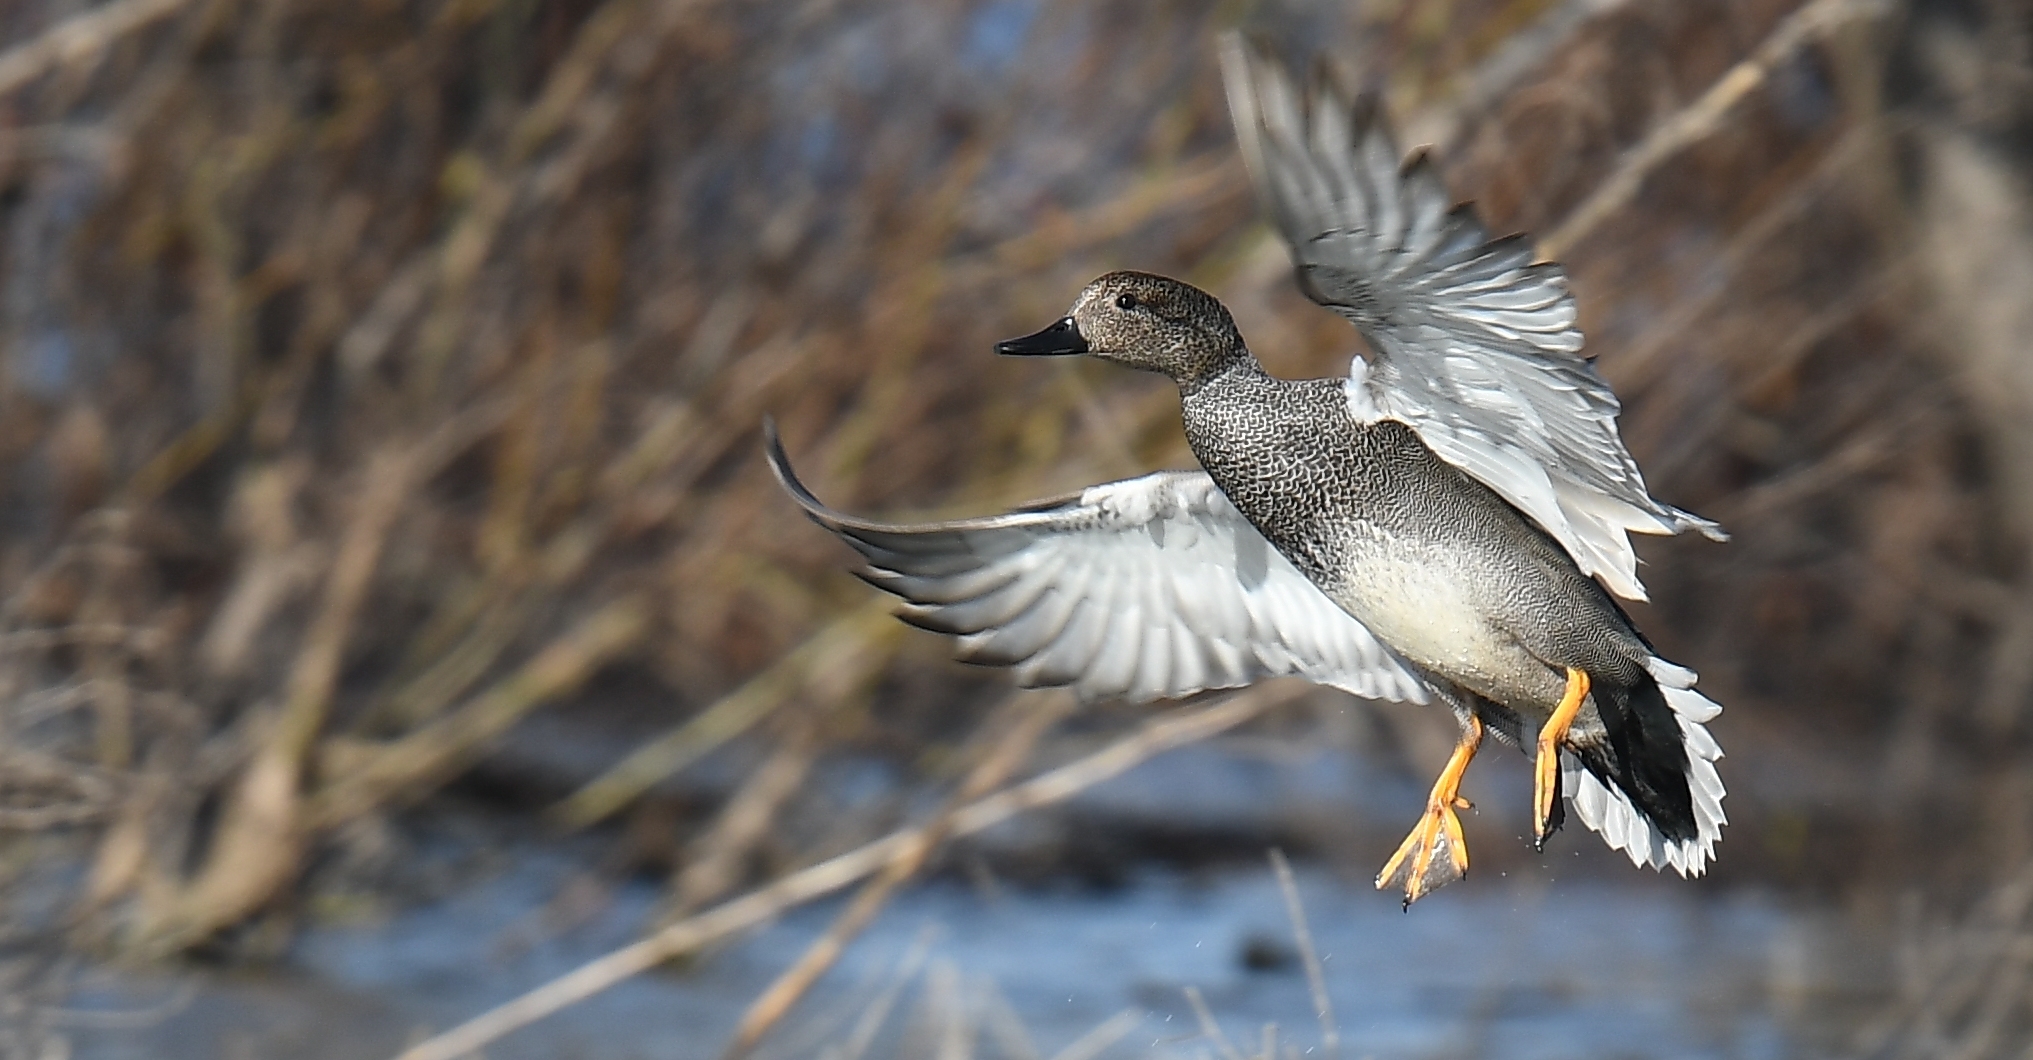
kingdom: Animalia
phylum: Chordata
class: Aves
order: Anseriformes
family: Anatidae
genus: Mareca
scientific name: Mareca strepera
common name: Gadwall
